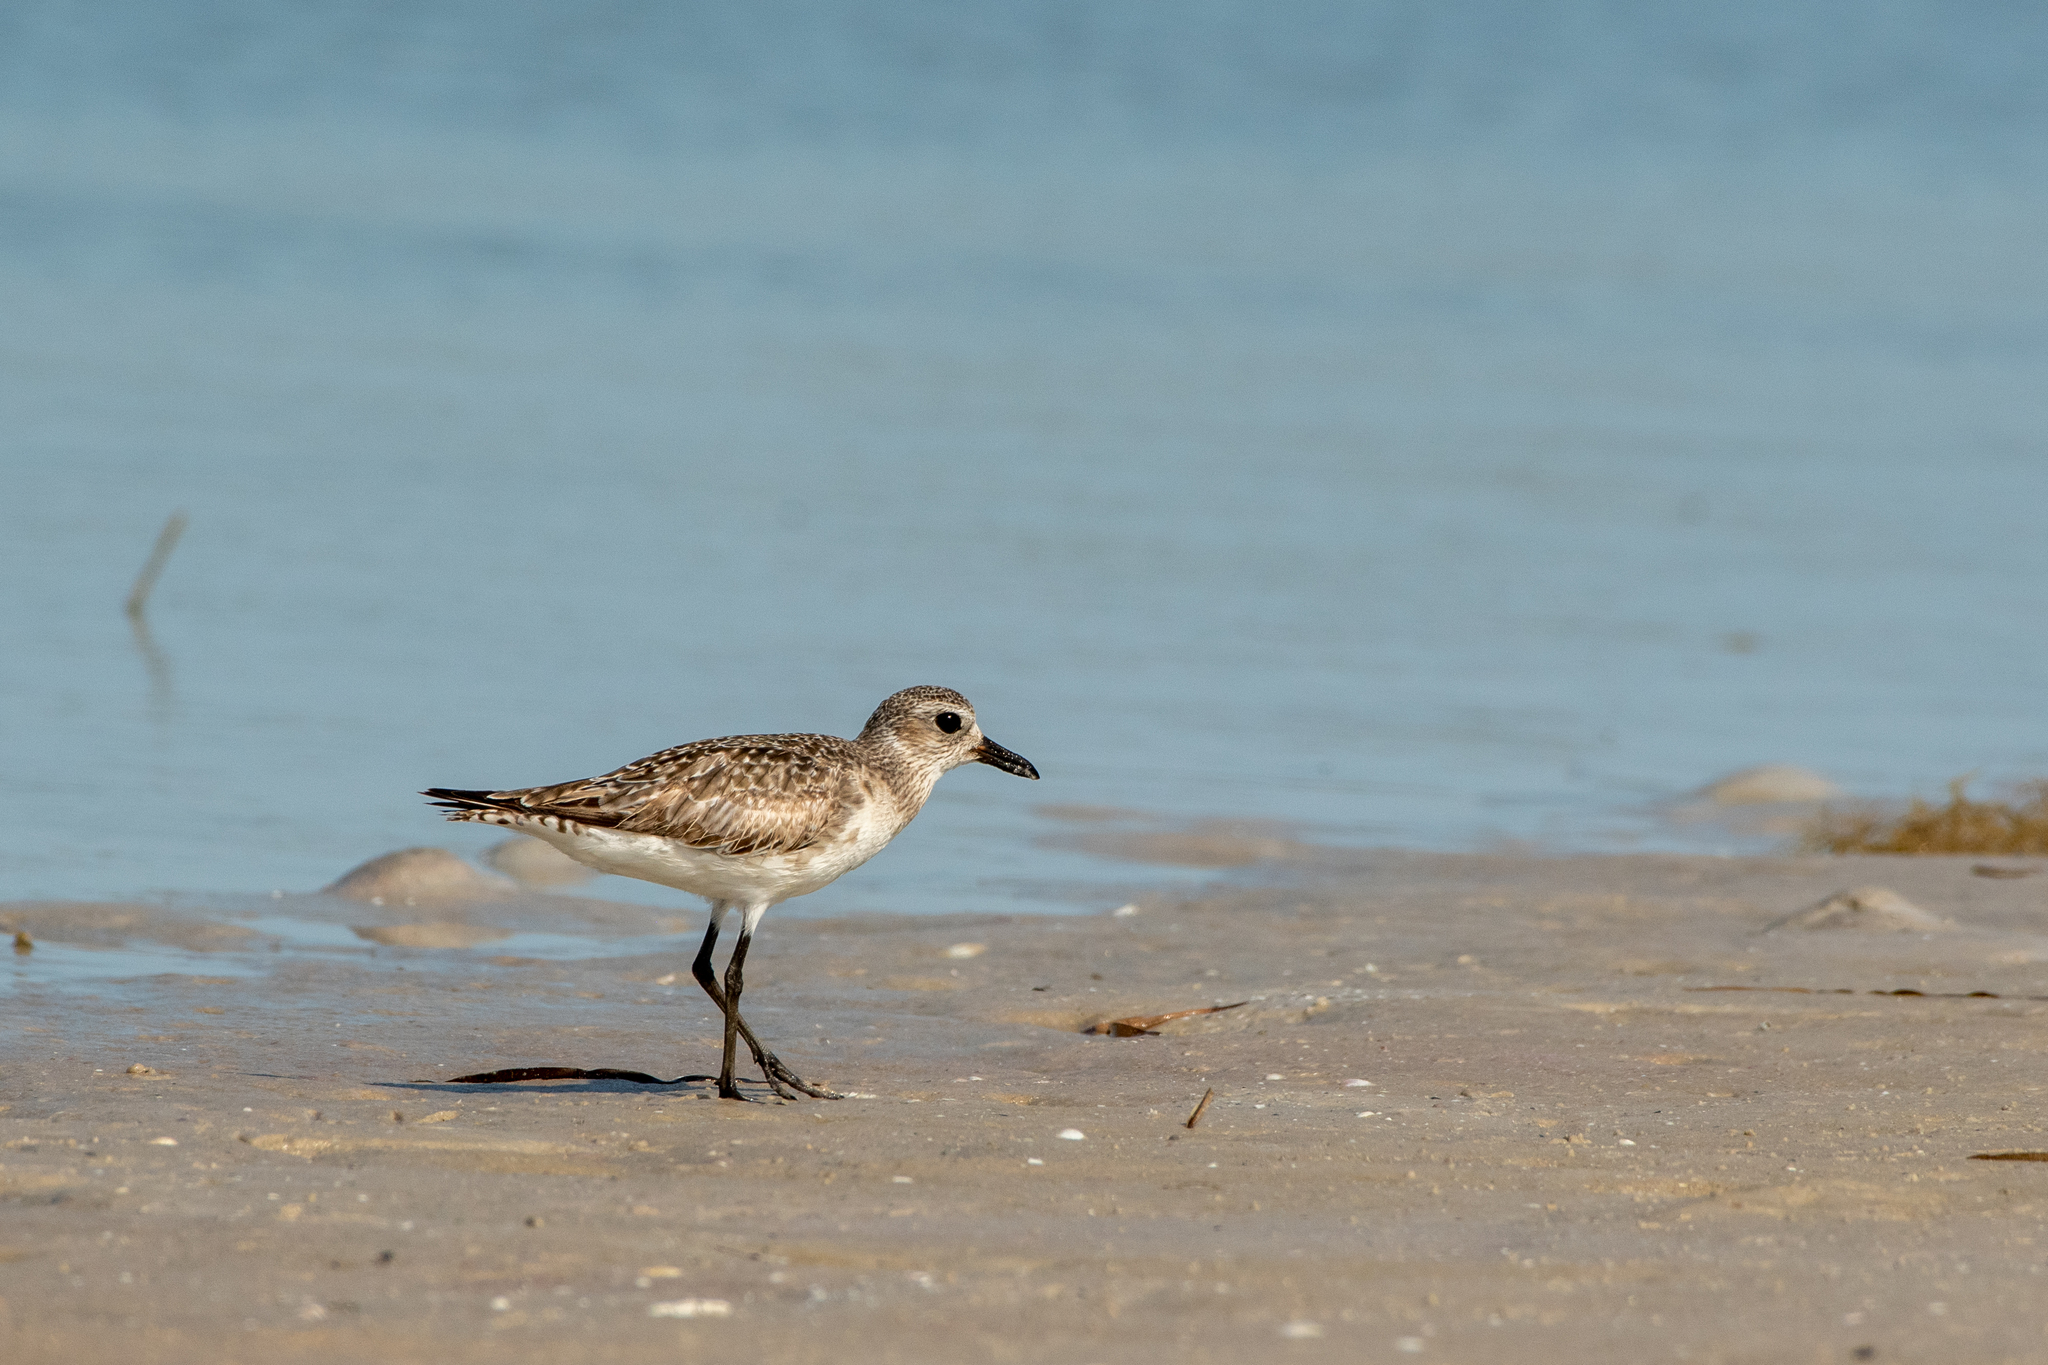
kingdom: Animalia
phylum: Chordata
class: Aves
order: Charadriiformes
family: Charadriidae
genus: Pluvialis
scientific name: Pluvialis squatarola
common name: Grey plover
